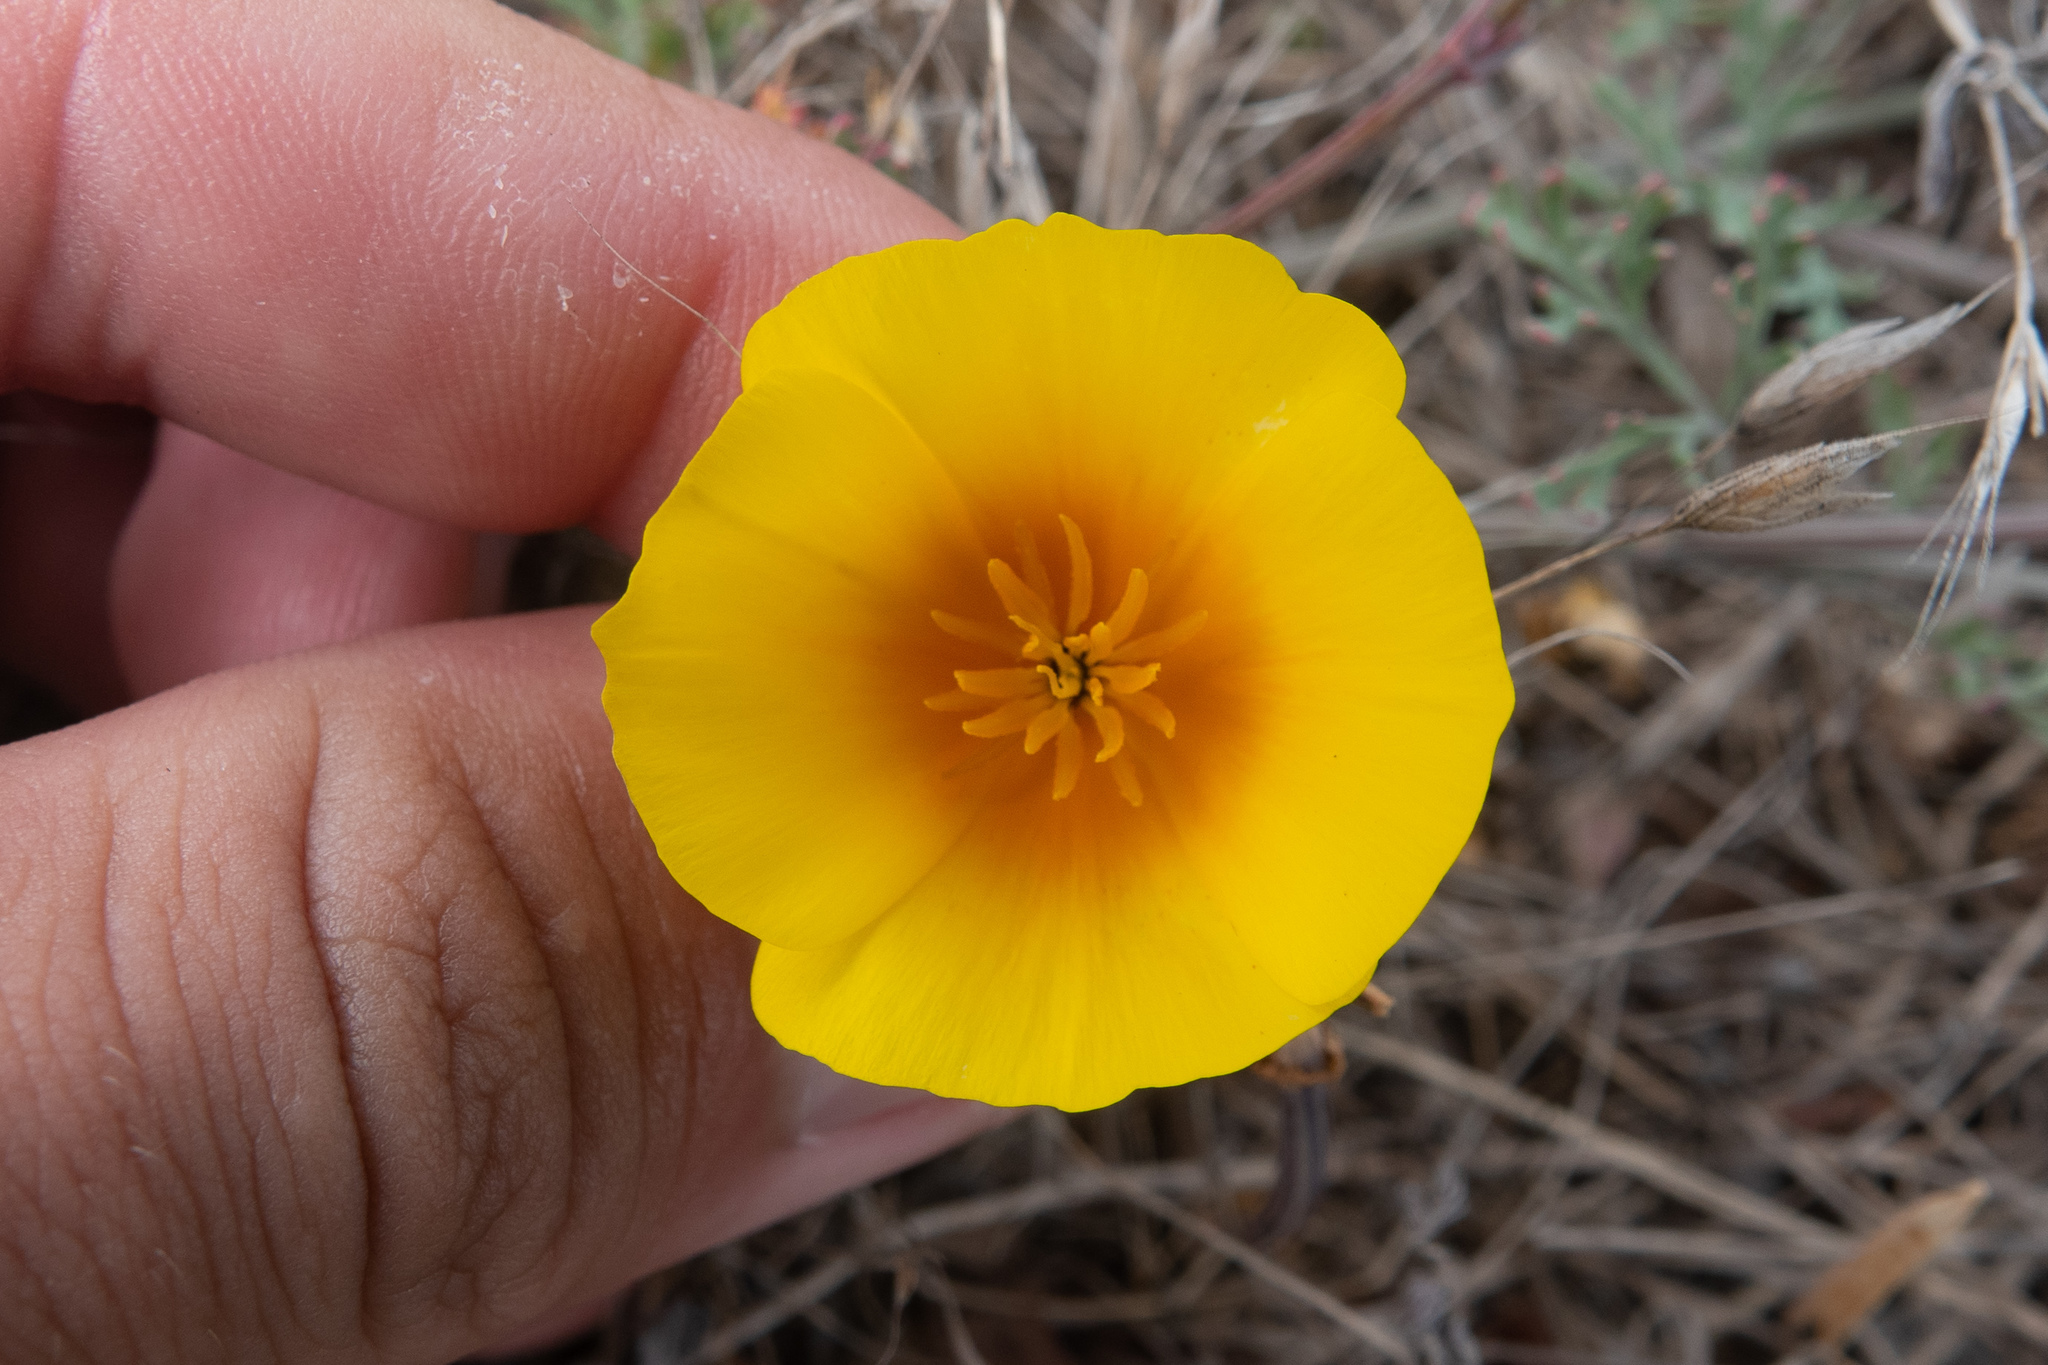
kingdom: Plantae
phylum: Tracheophyta
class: Magnoliopsida
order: Ranunculales
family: Papaveraceae
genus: Eschscholzia
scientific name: Eschscholzia californica
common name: California poppy
